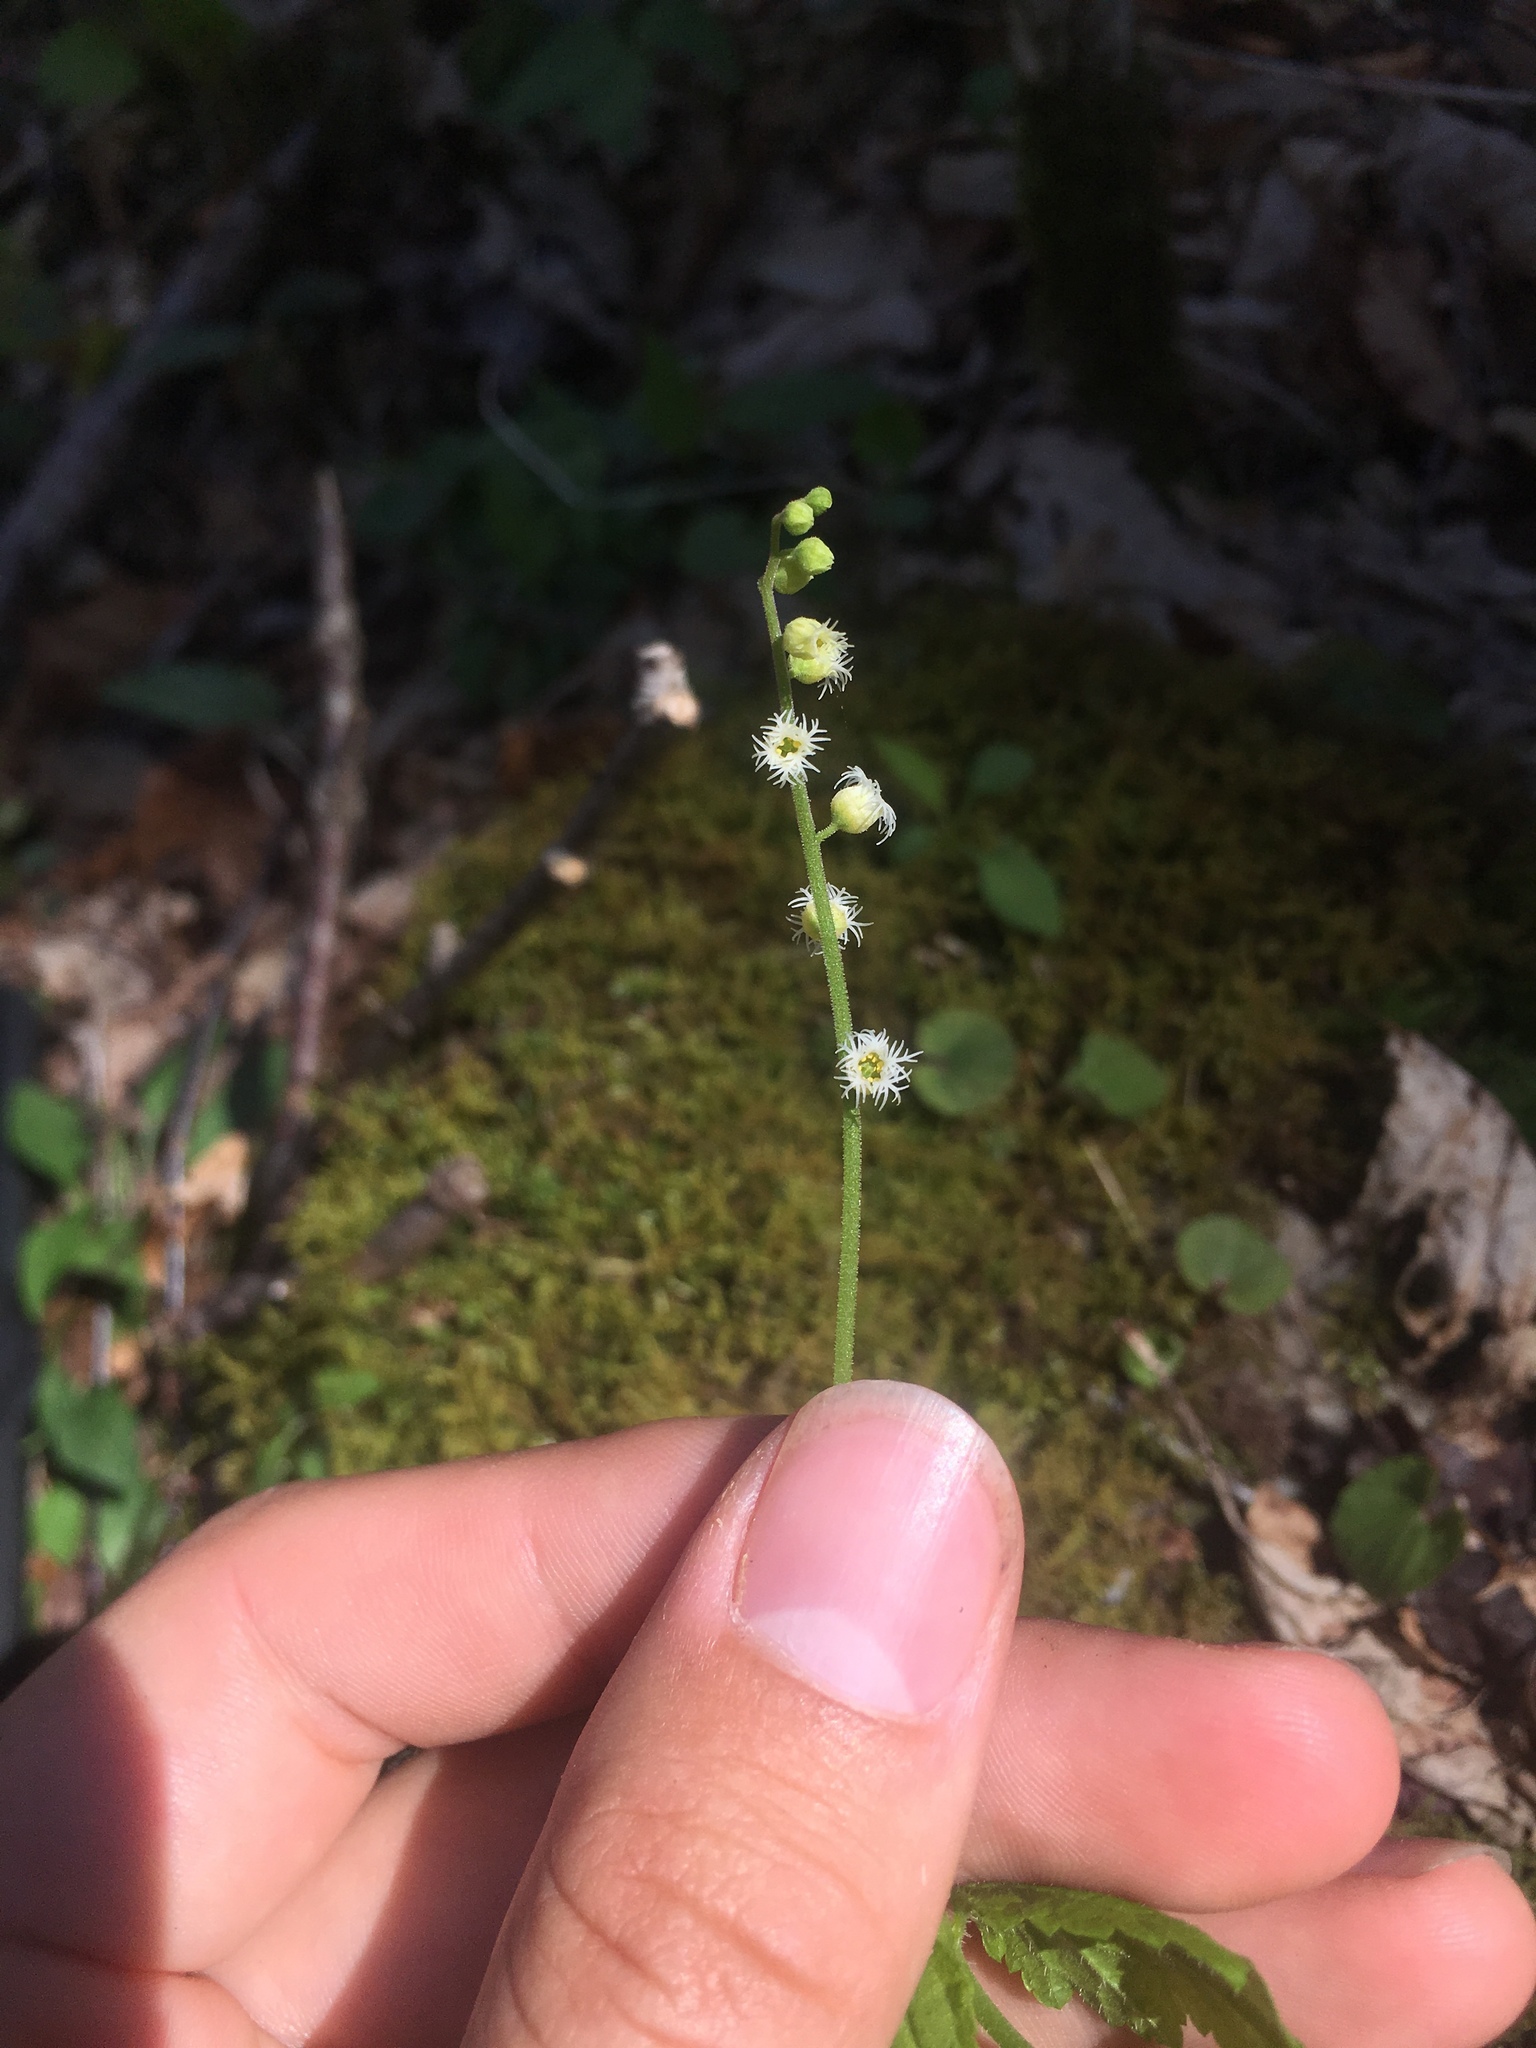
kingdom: Plantae
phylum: Tracheophyta
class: Magnoliopsida
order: Saxifragales
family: Saxifragaceae
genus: Mitella
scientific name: Mitella diphylla
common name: Coolwort
